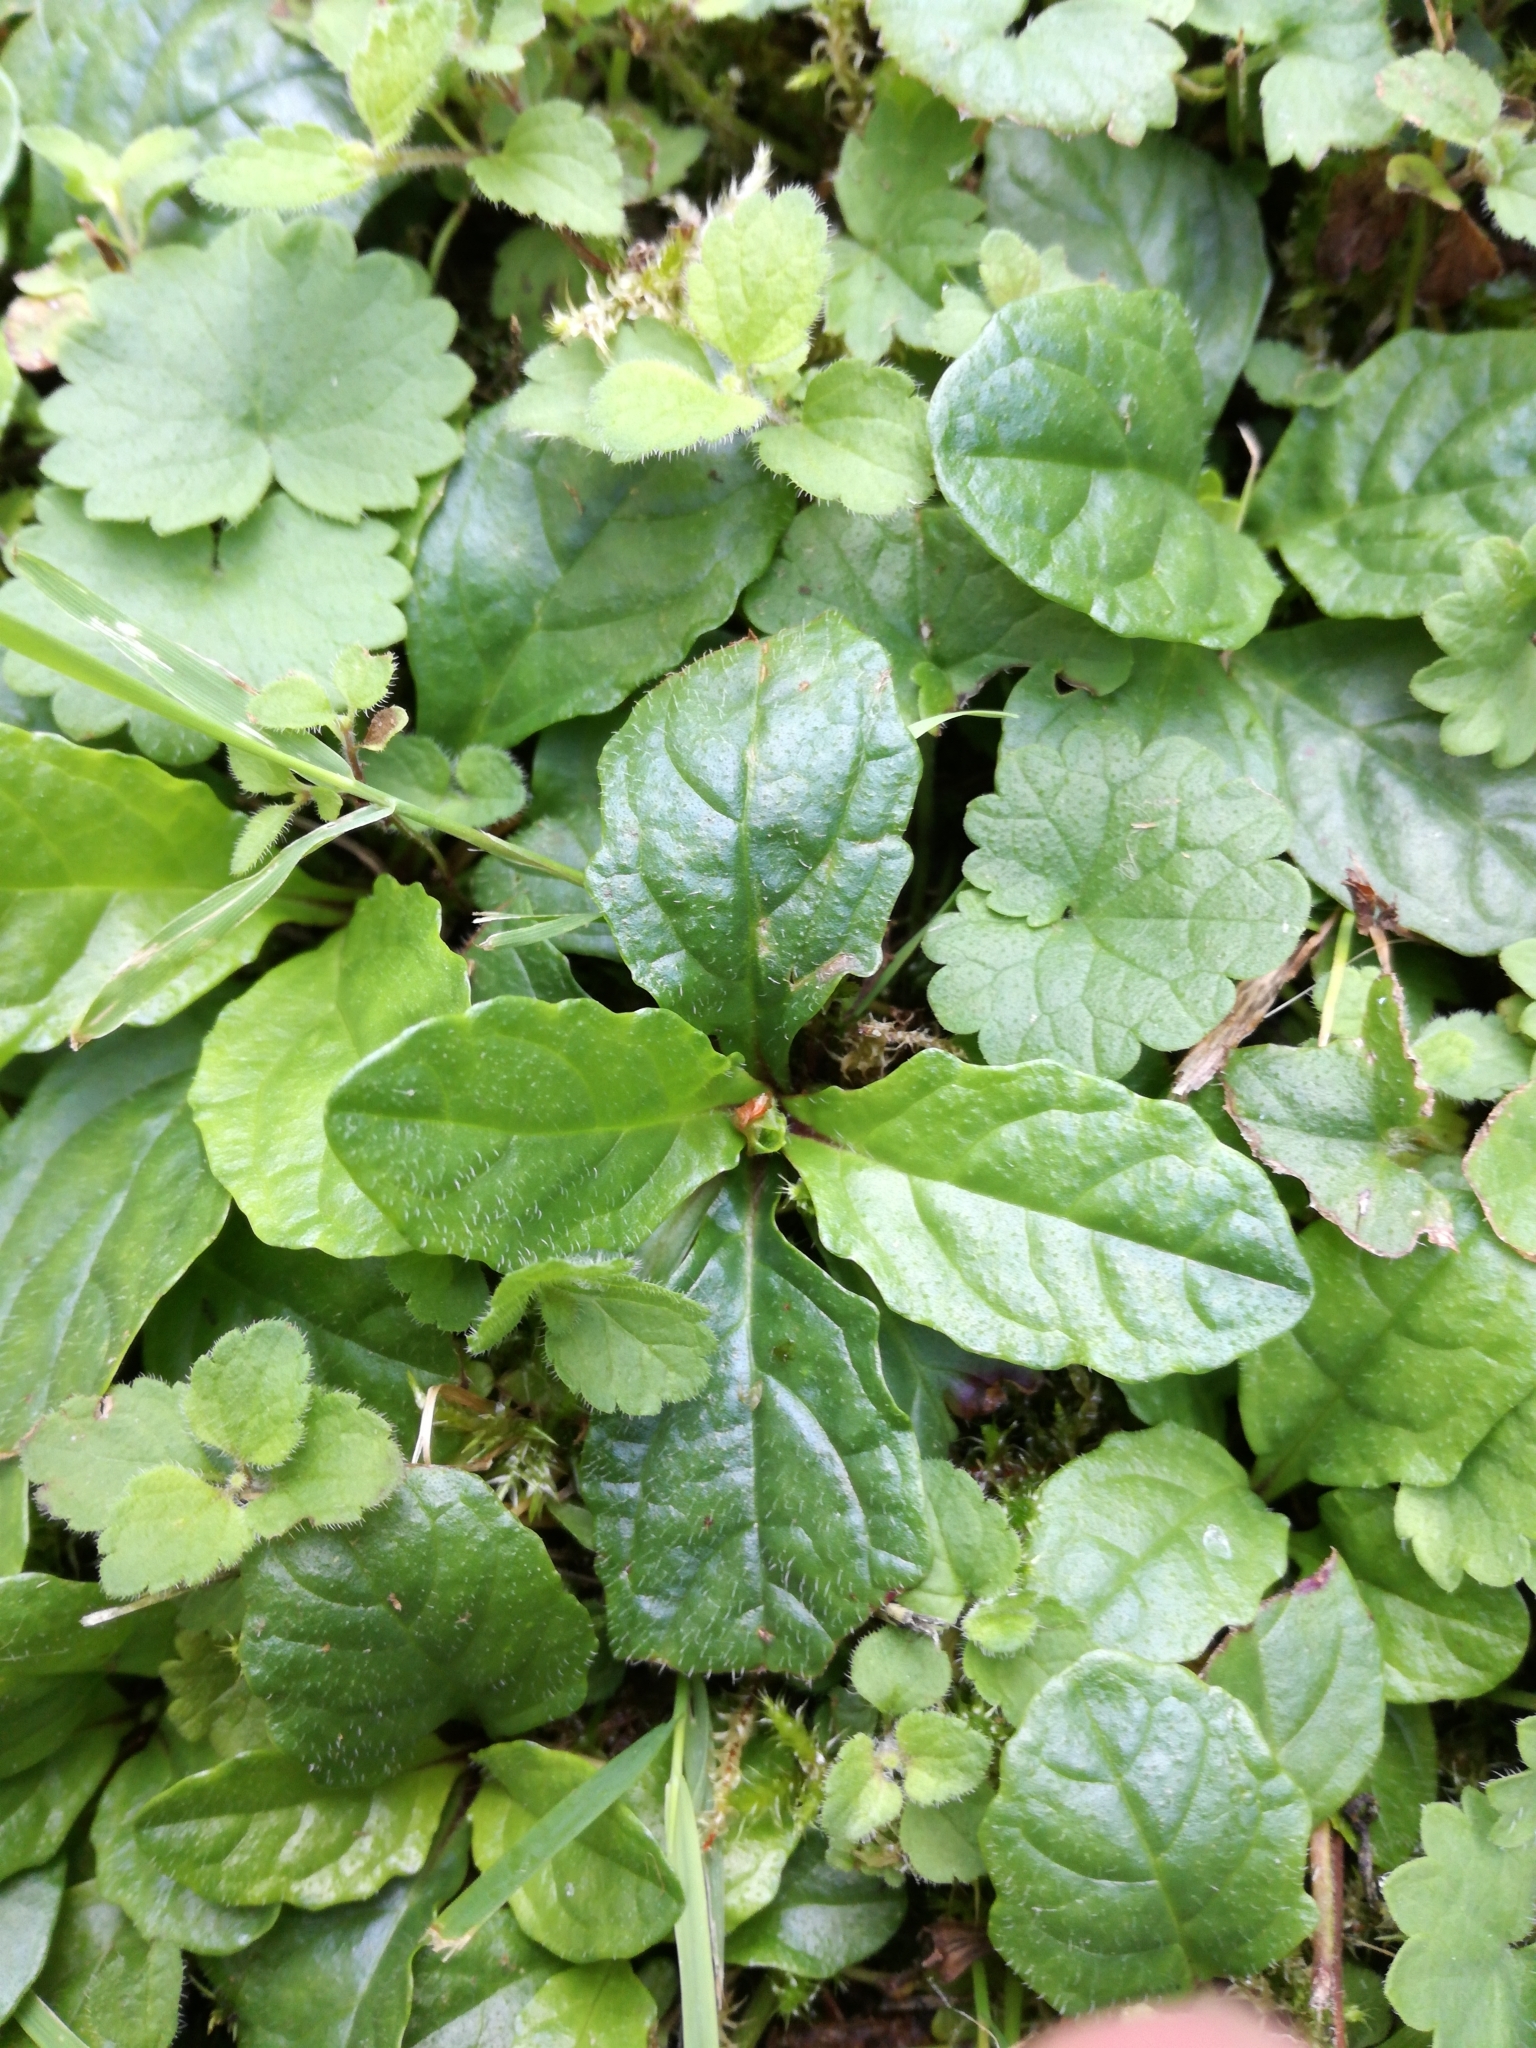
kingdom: Plantae
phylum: Tracheophyta
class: Magnoliopsida
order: Lamiales
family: Lamiaceae
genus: Ajuga
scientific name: Ajuga reptans
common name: Bugle
